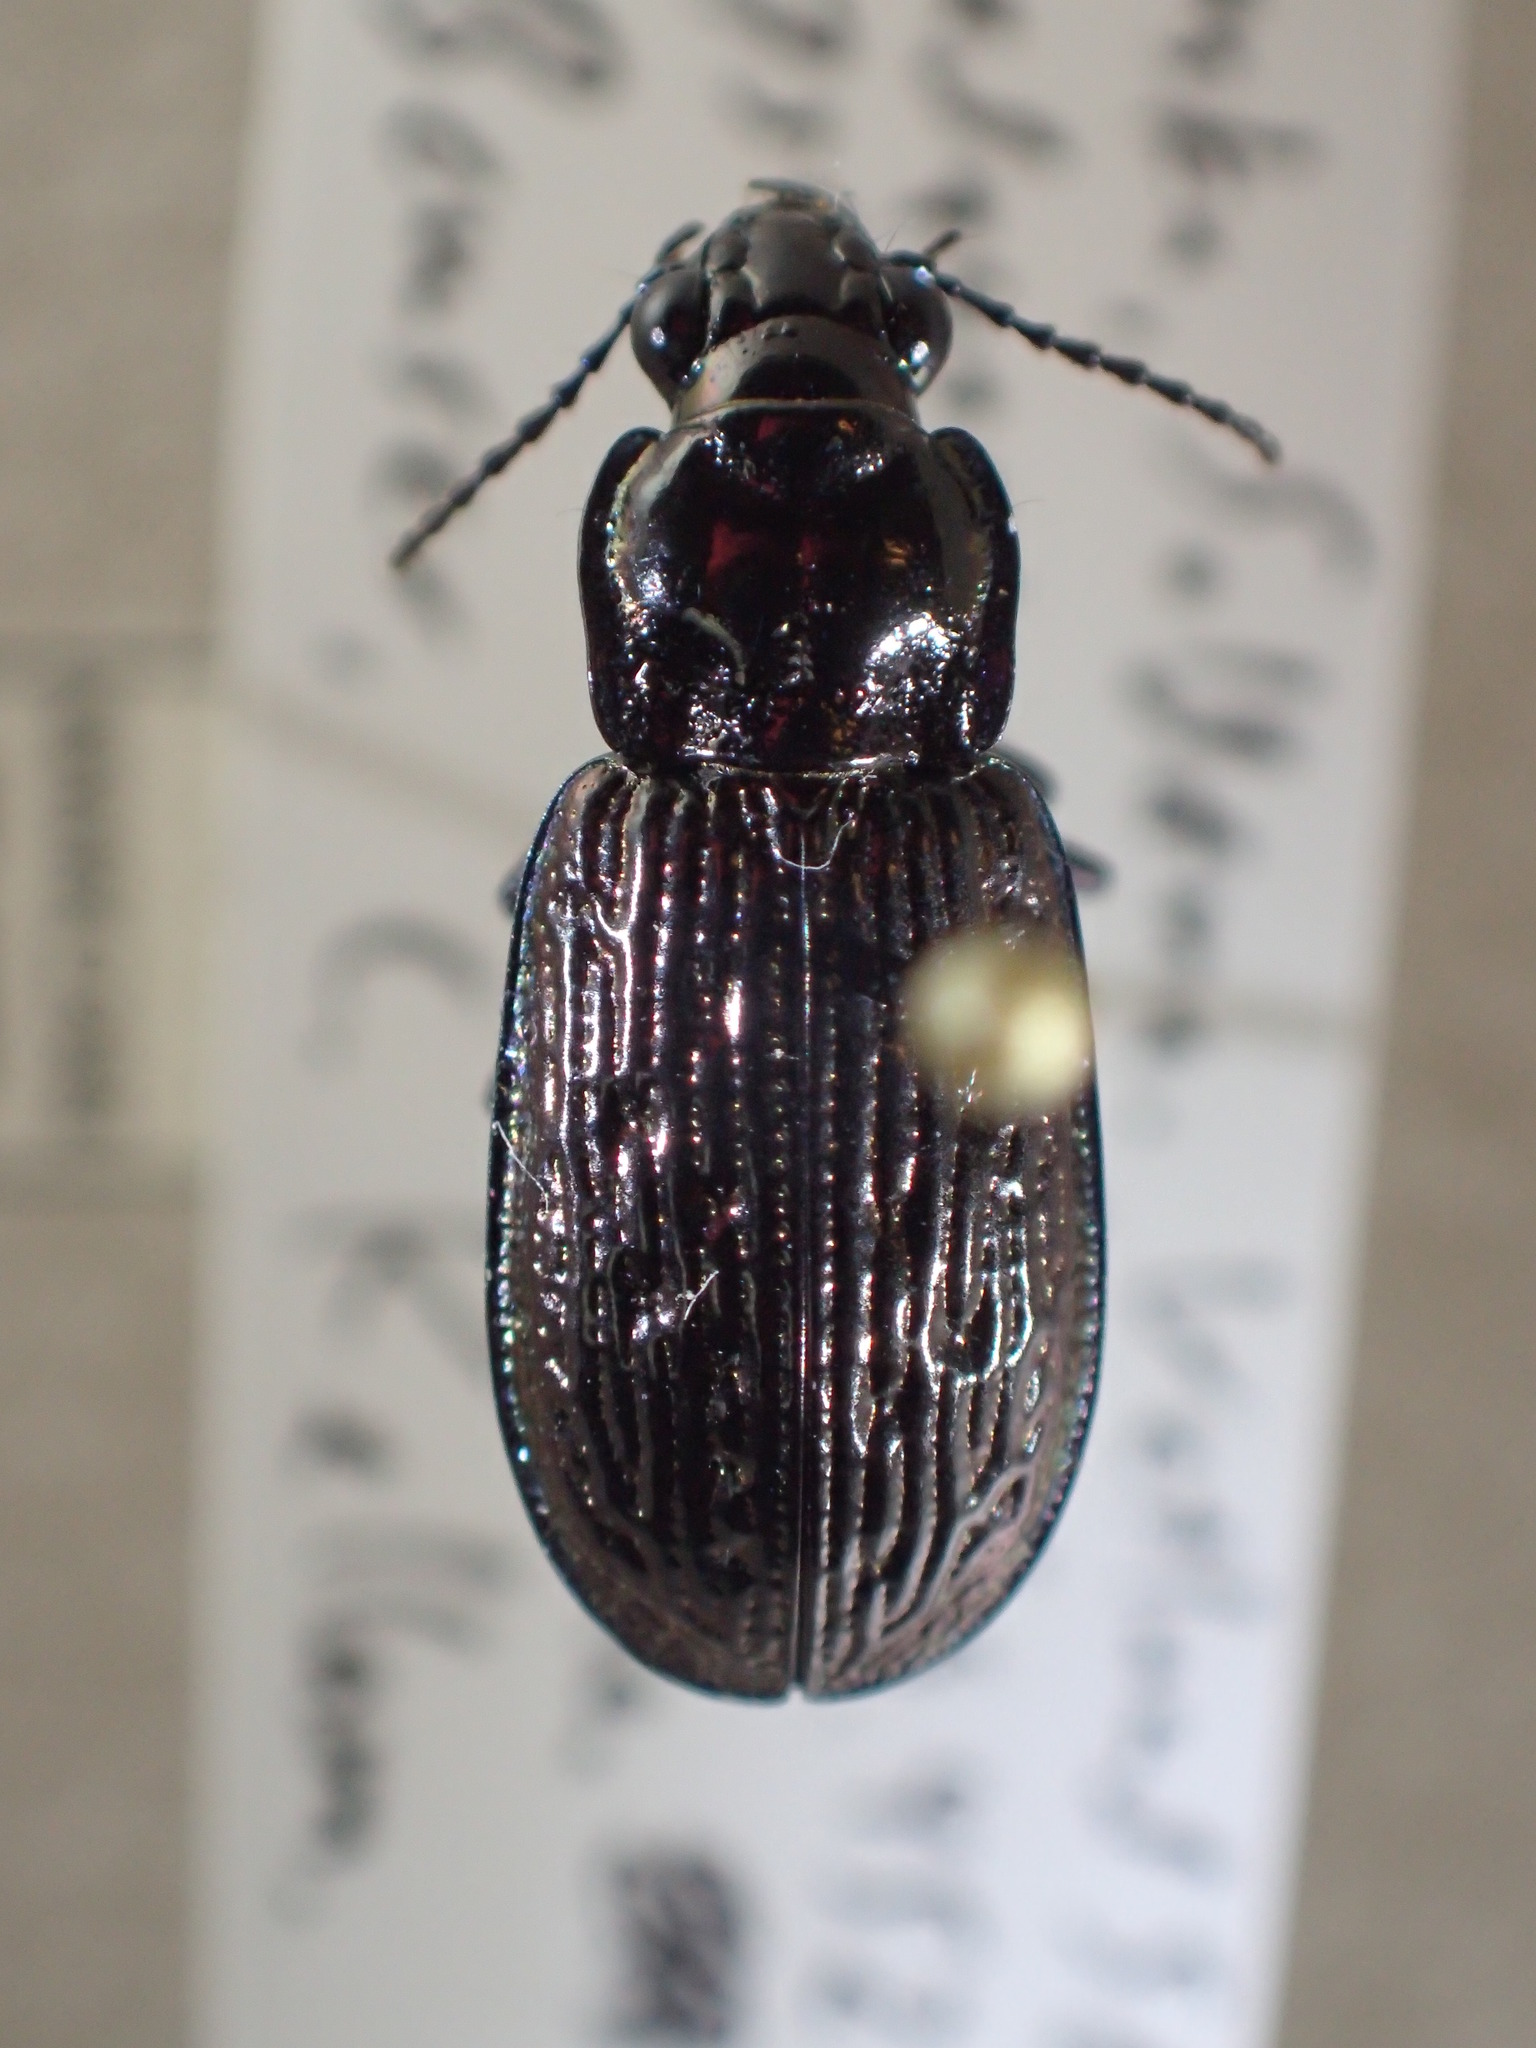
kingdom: Animalia
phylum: Arthropoda
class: Insecta
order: Coleoptera
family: Carabidae
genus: Blethisa
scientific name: Blethisa quadricollis
